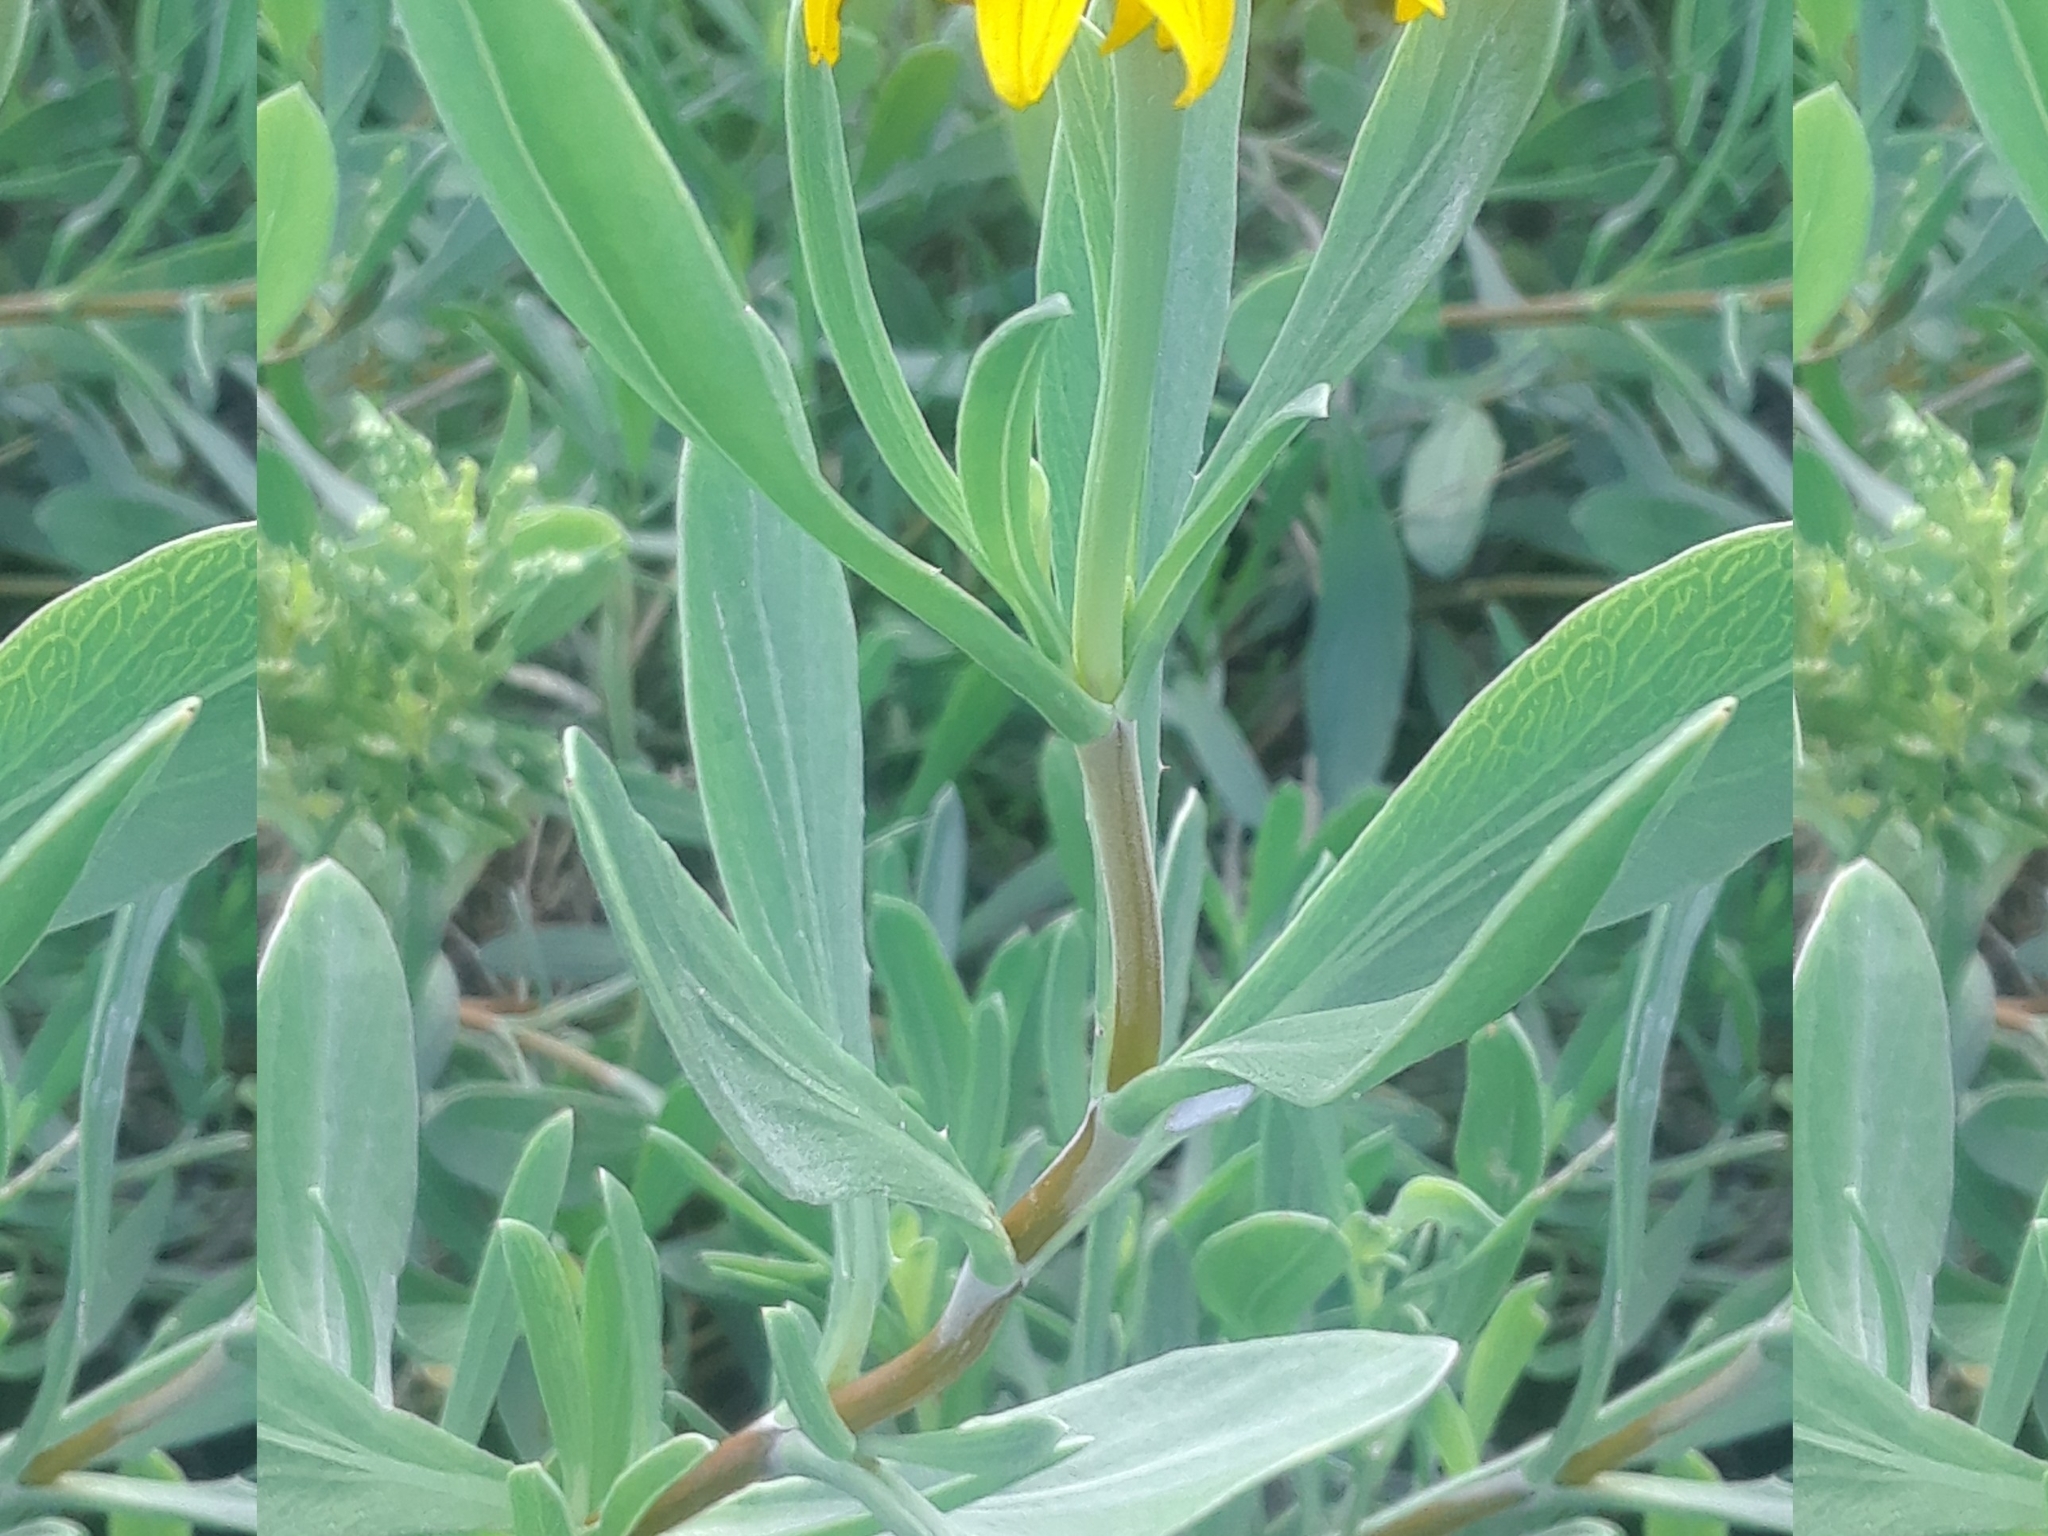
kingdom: Plantae
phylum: Tracheophyta
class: Magnoliopsida
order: Asterales
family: Asteraceae
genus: Borrichia
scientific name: Borrichia frutescens
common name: Sea oxeye
